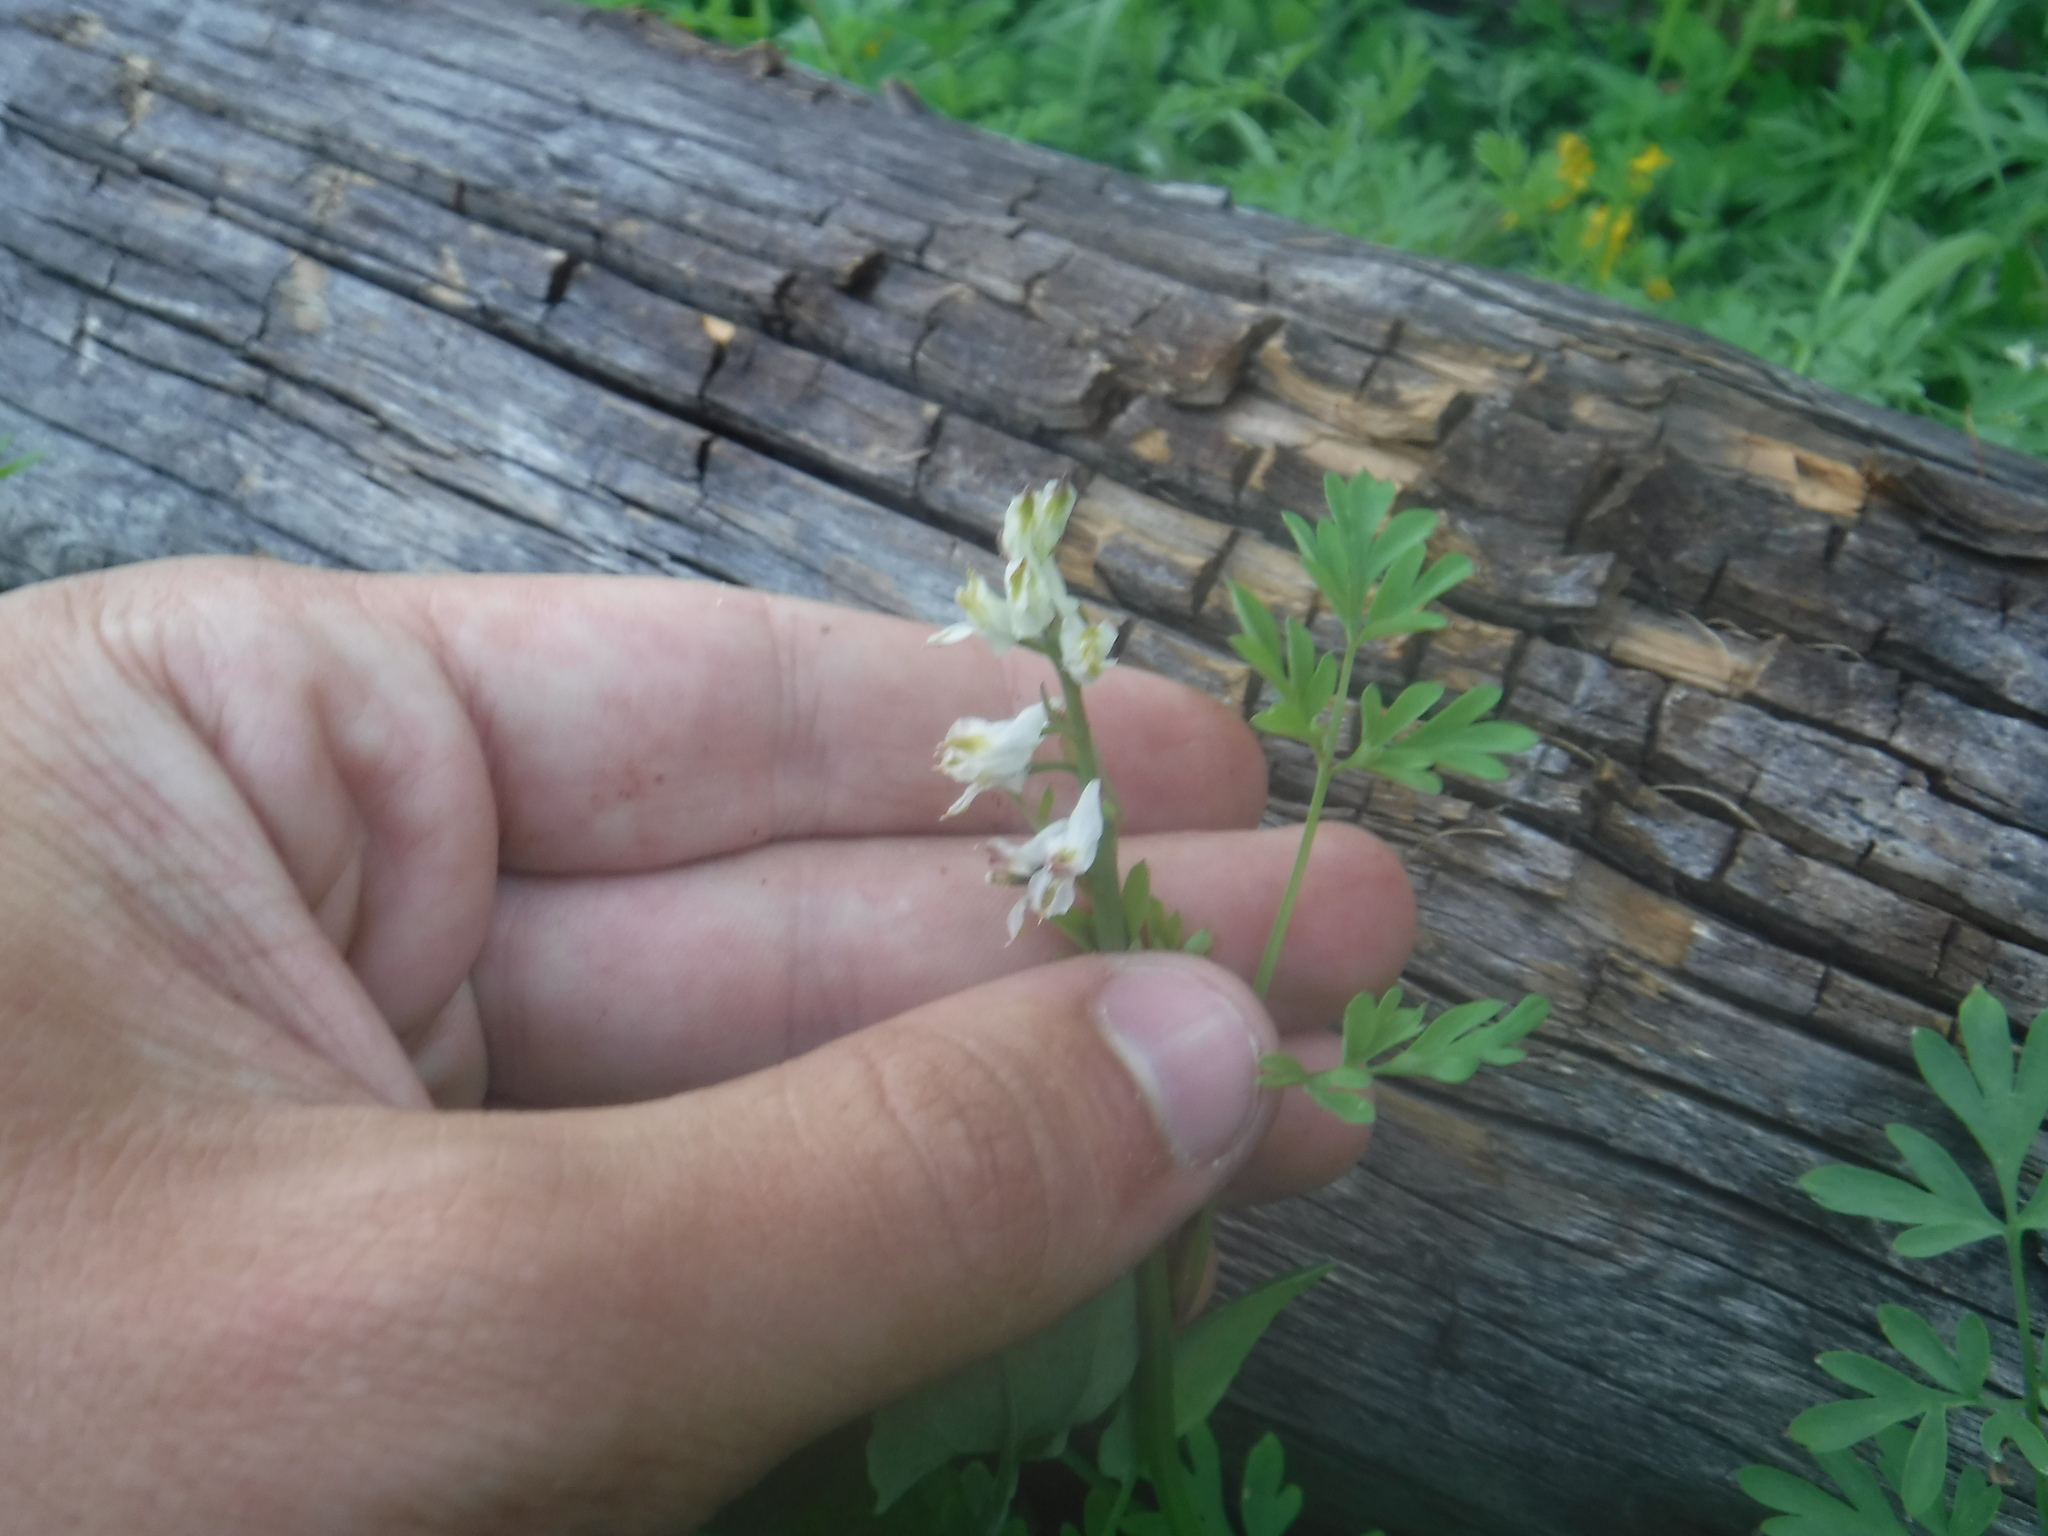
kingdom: Plantae
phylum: Tracheophyta
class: Magnoliopsida
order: Ranunculales
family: Papaveraceae
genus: Corydalis
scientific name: Corydalis sibirica
